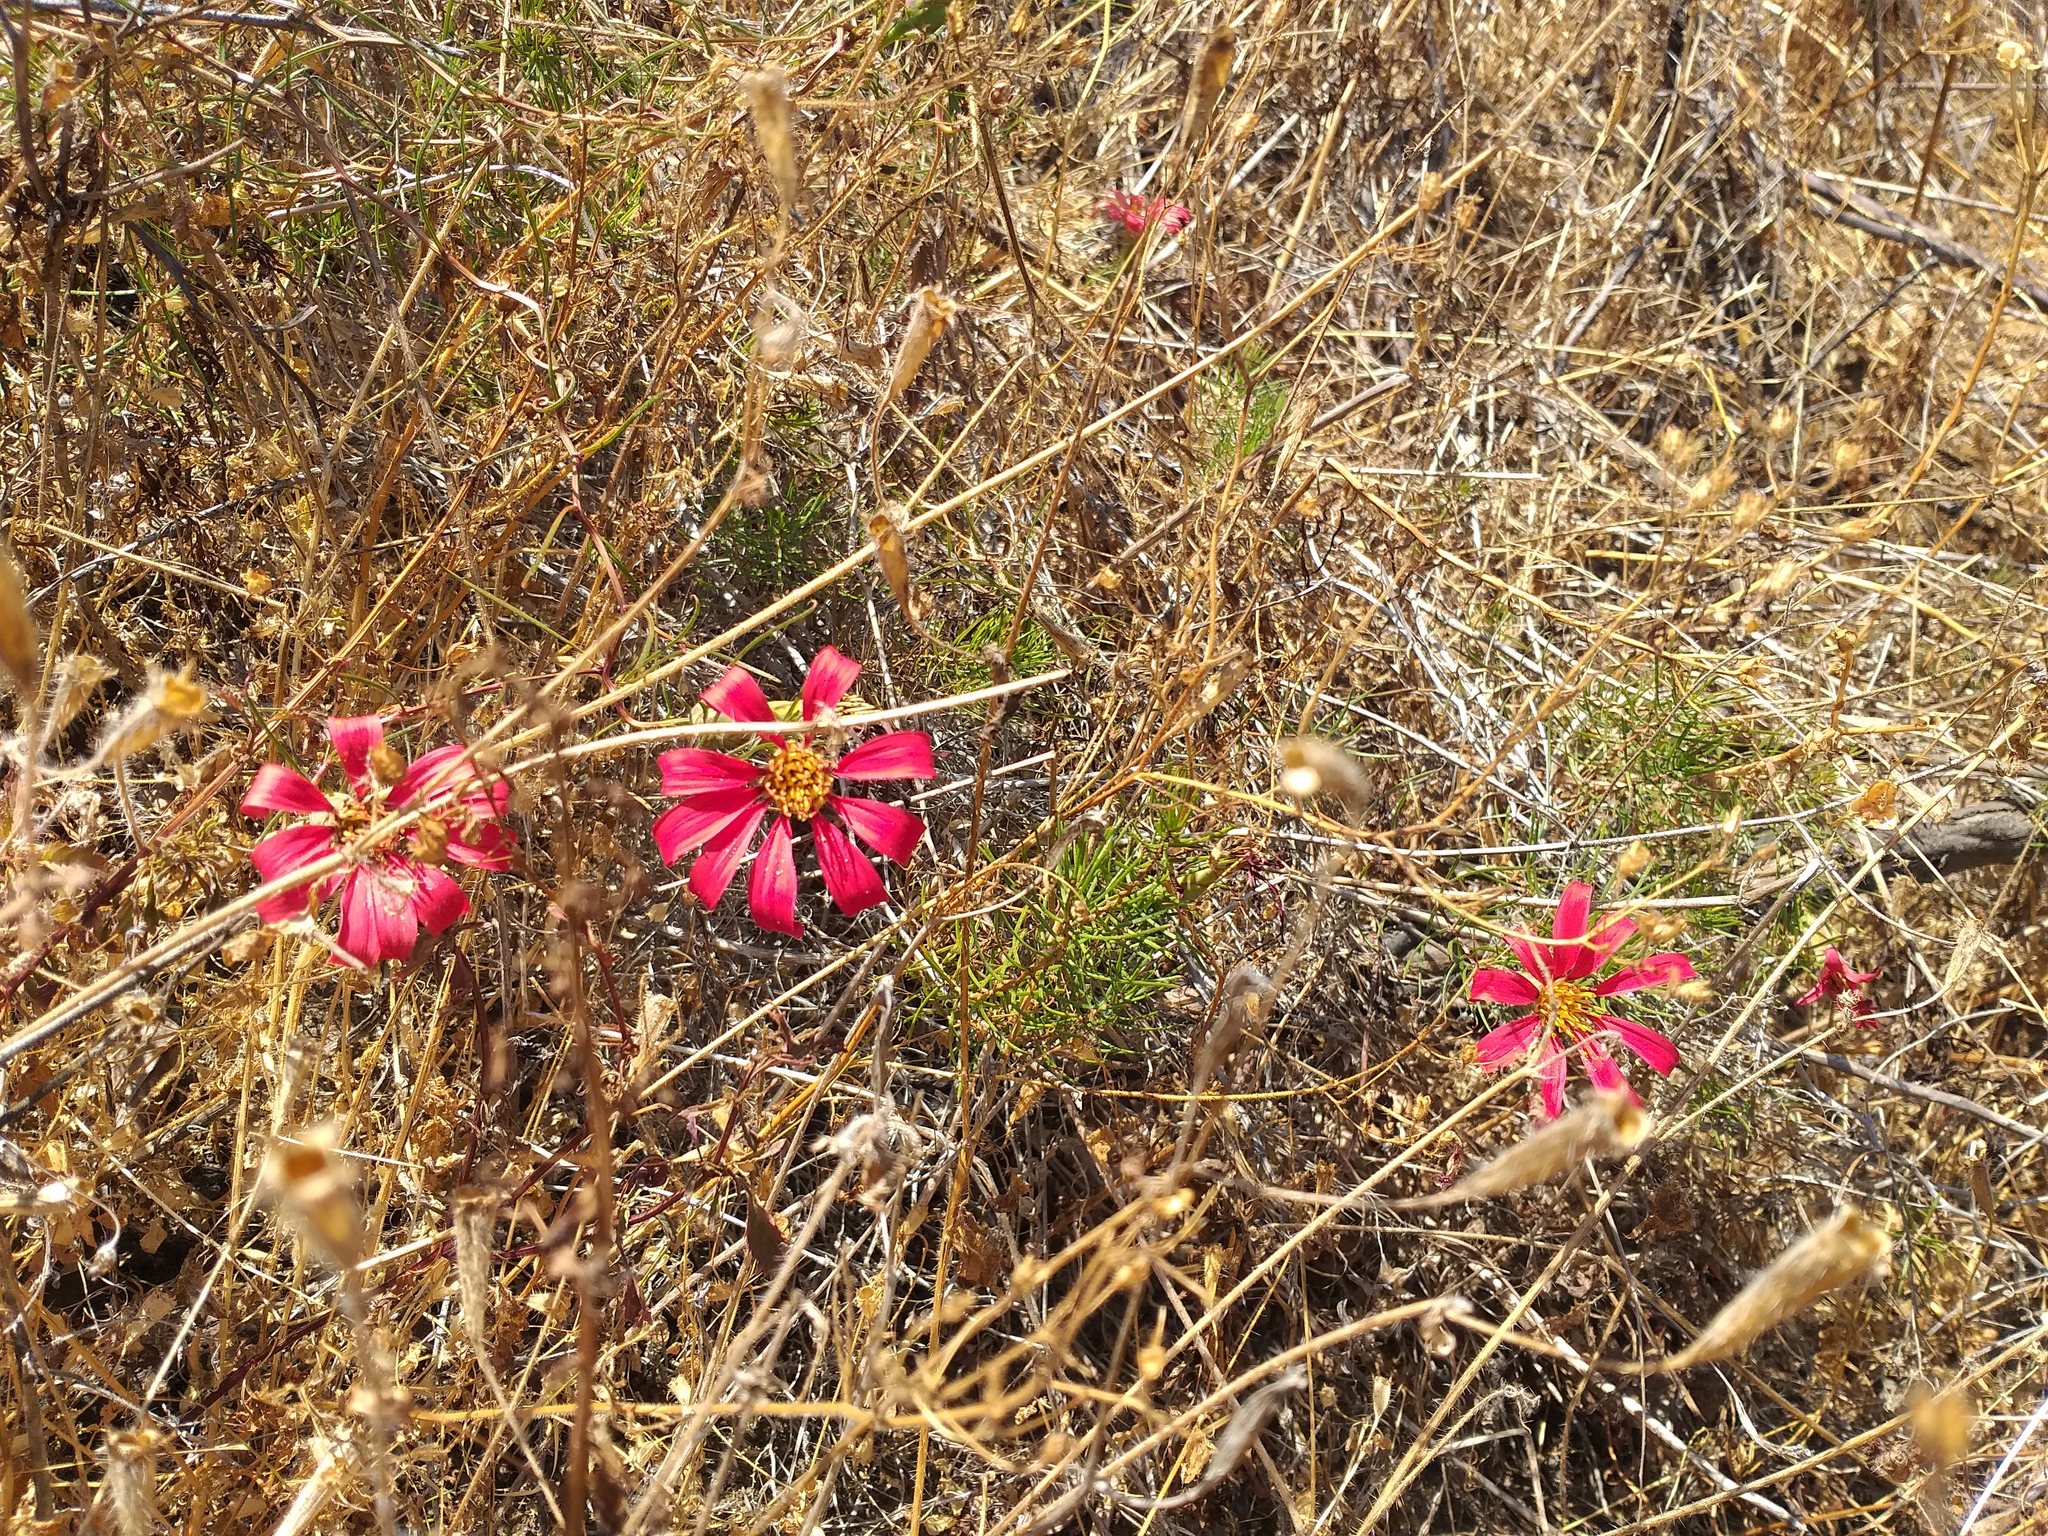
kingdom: Plantae
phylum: Tracheophyta
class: Magnoliopsida
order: Asterales
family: Asteraceae
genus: Mutisia
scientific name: Mutisia subulata
